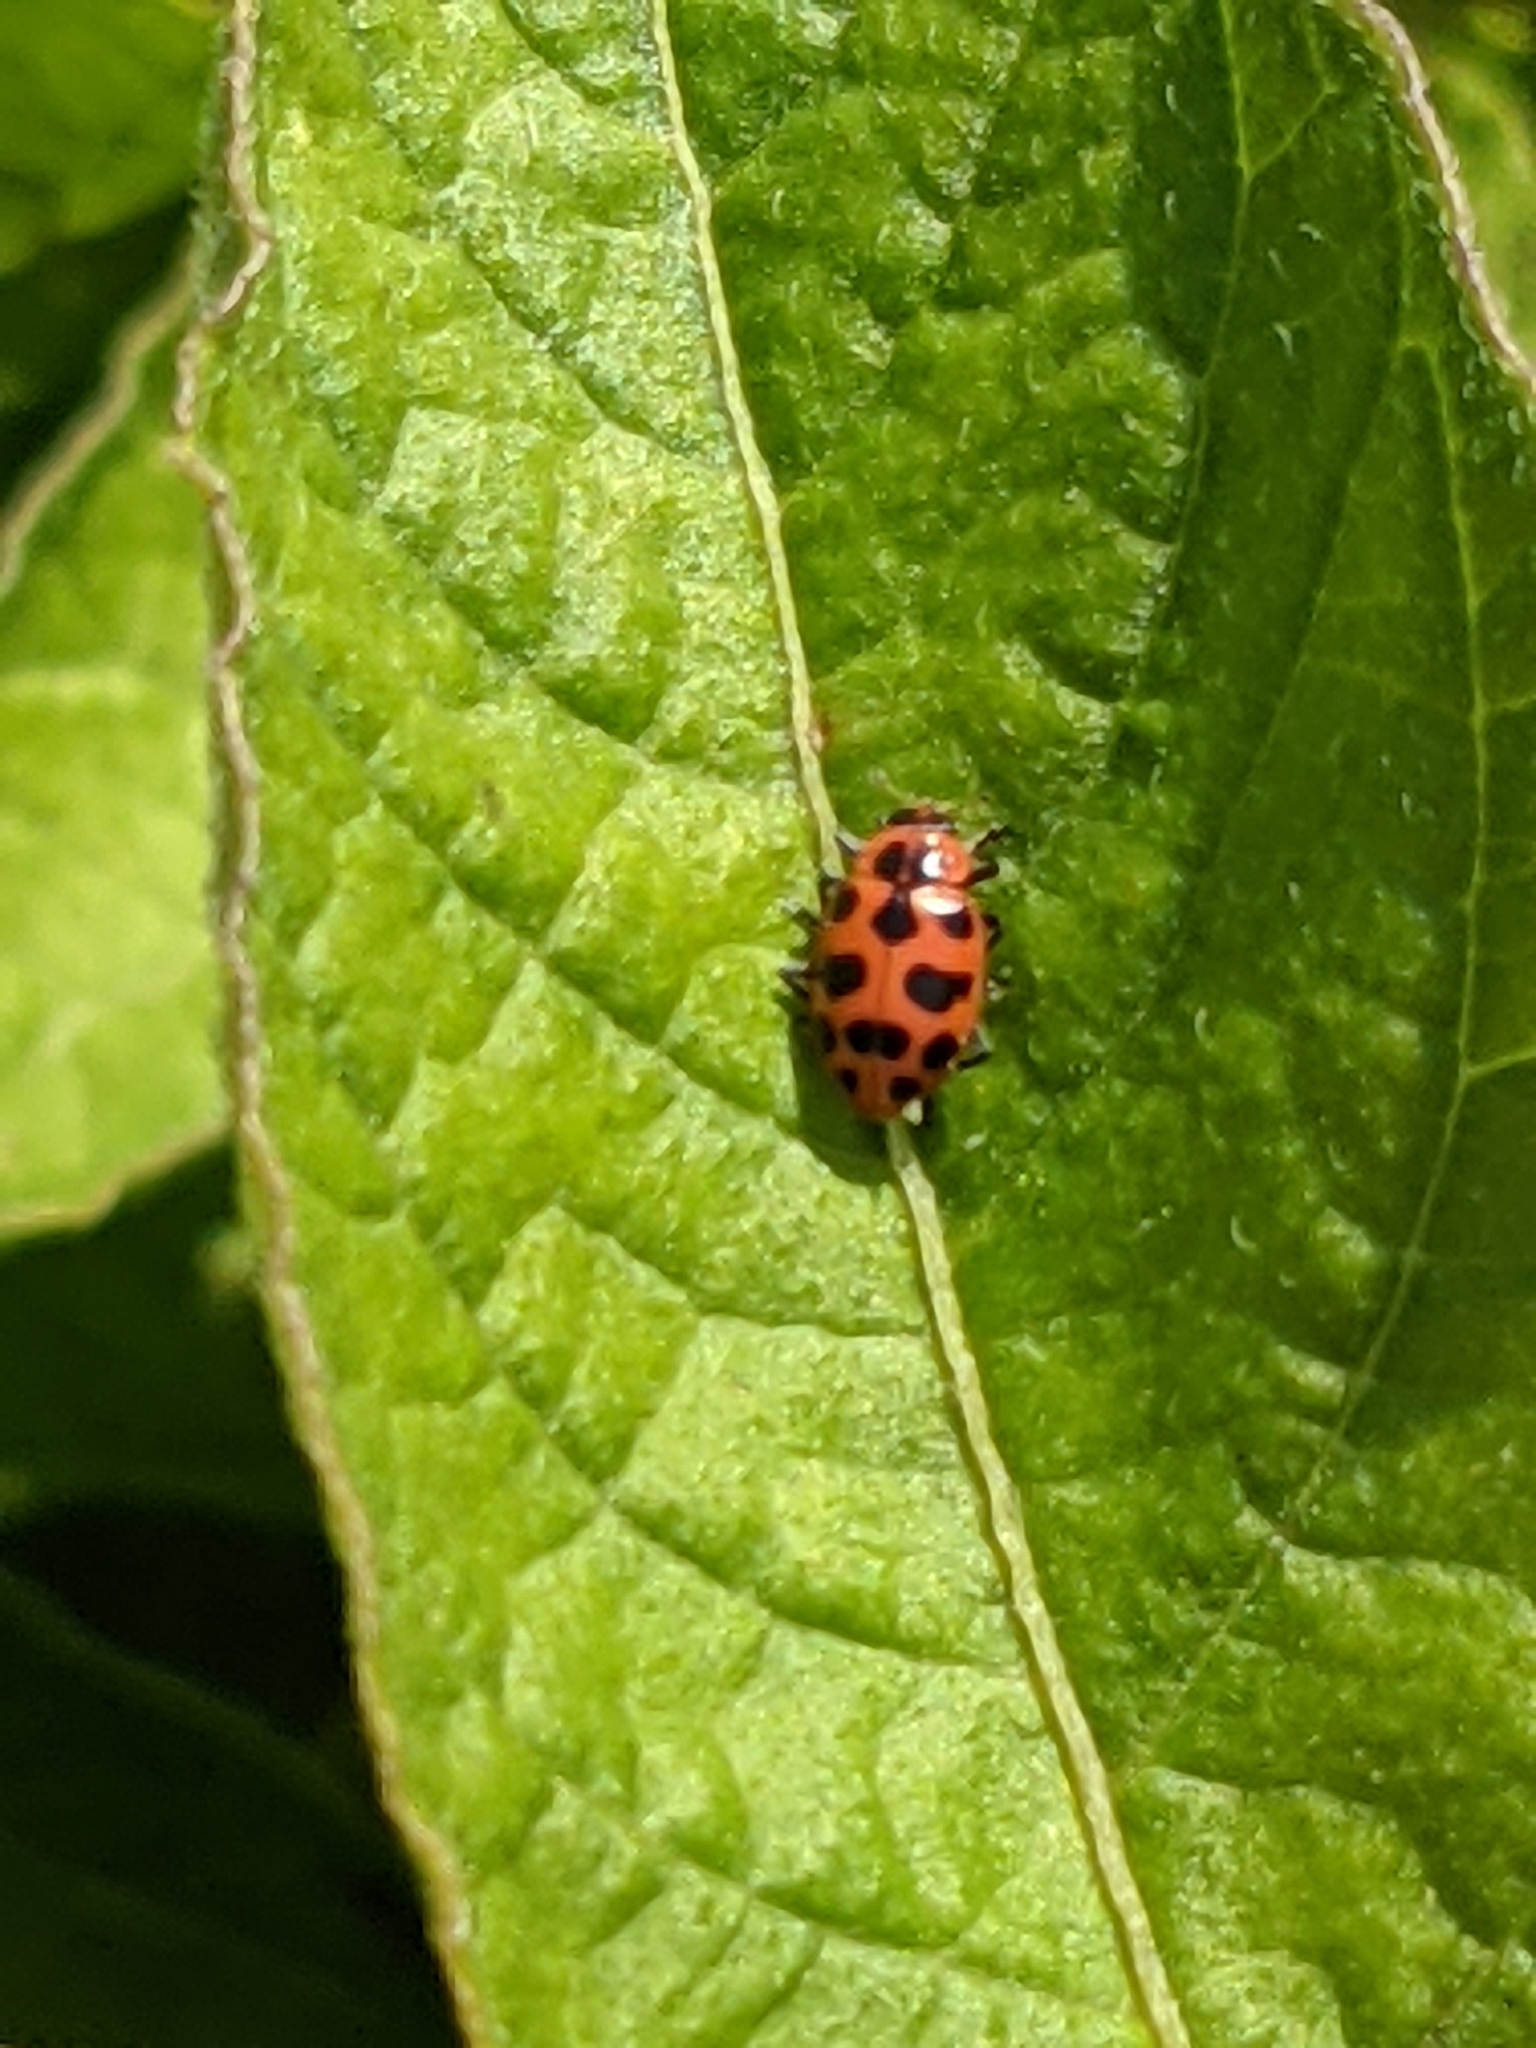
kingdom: Animalia
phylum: Arthropoda
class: Insecta
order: Coleoptera
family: Coccinellidae
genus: Coleomegilla
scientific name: Coleomegilla maculata
